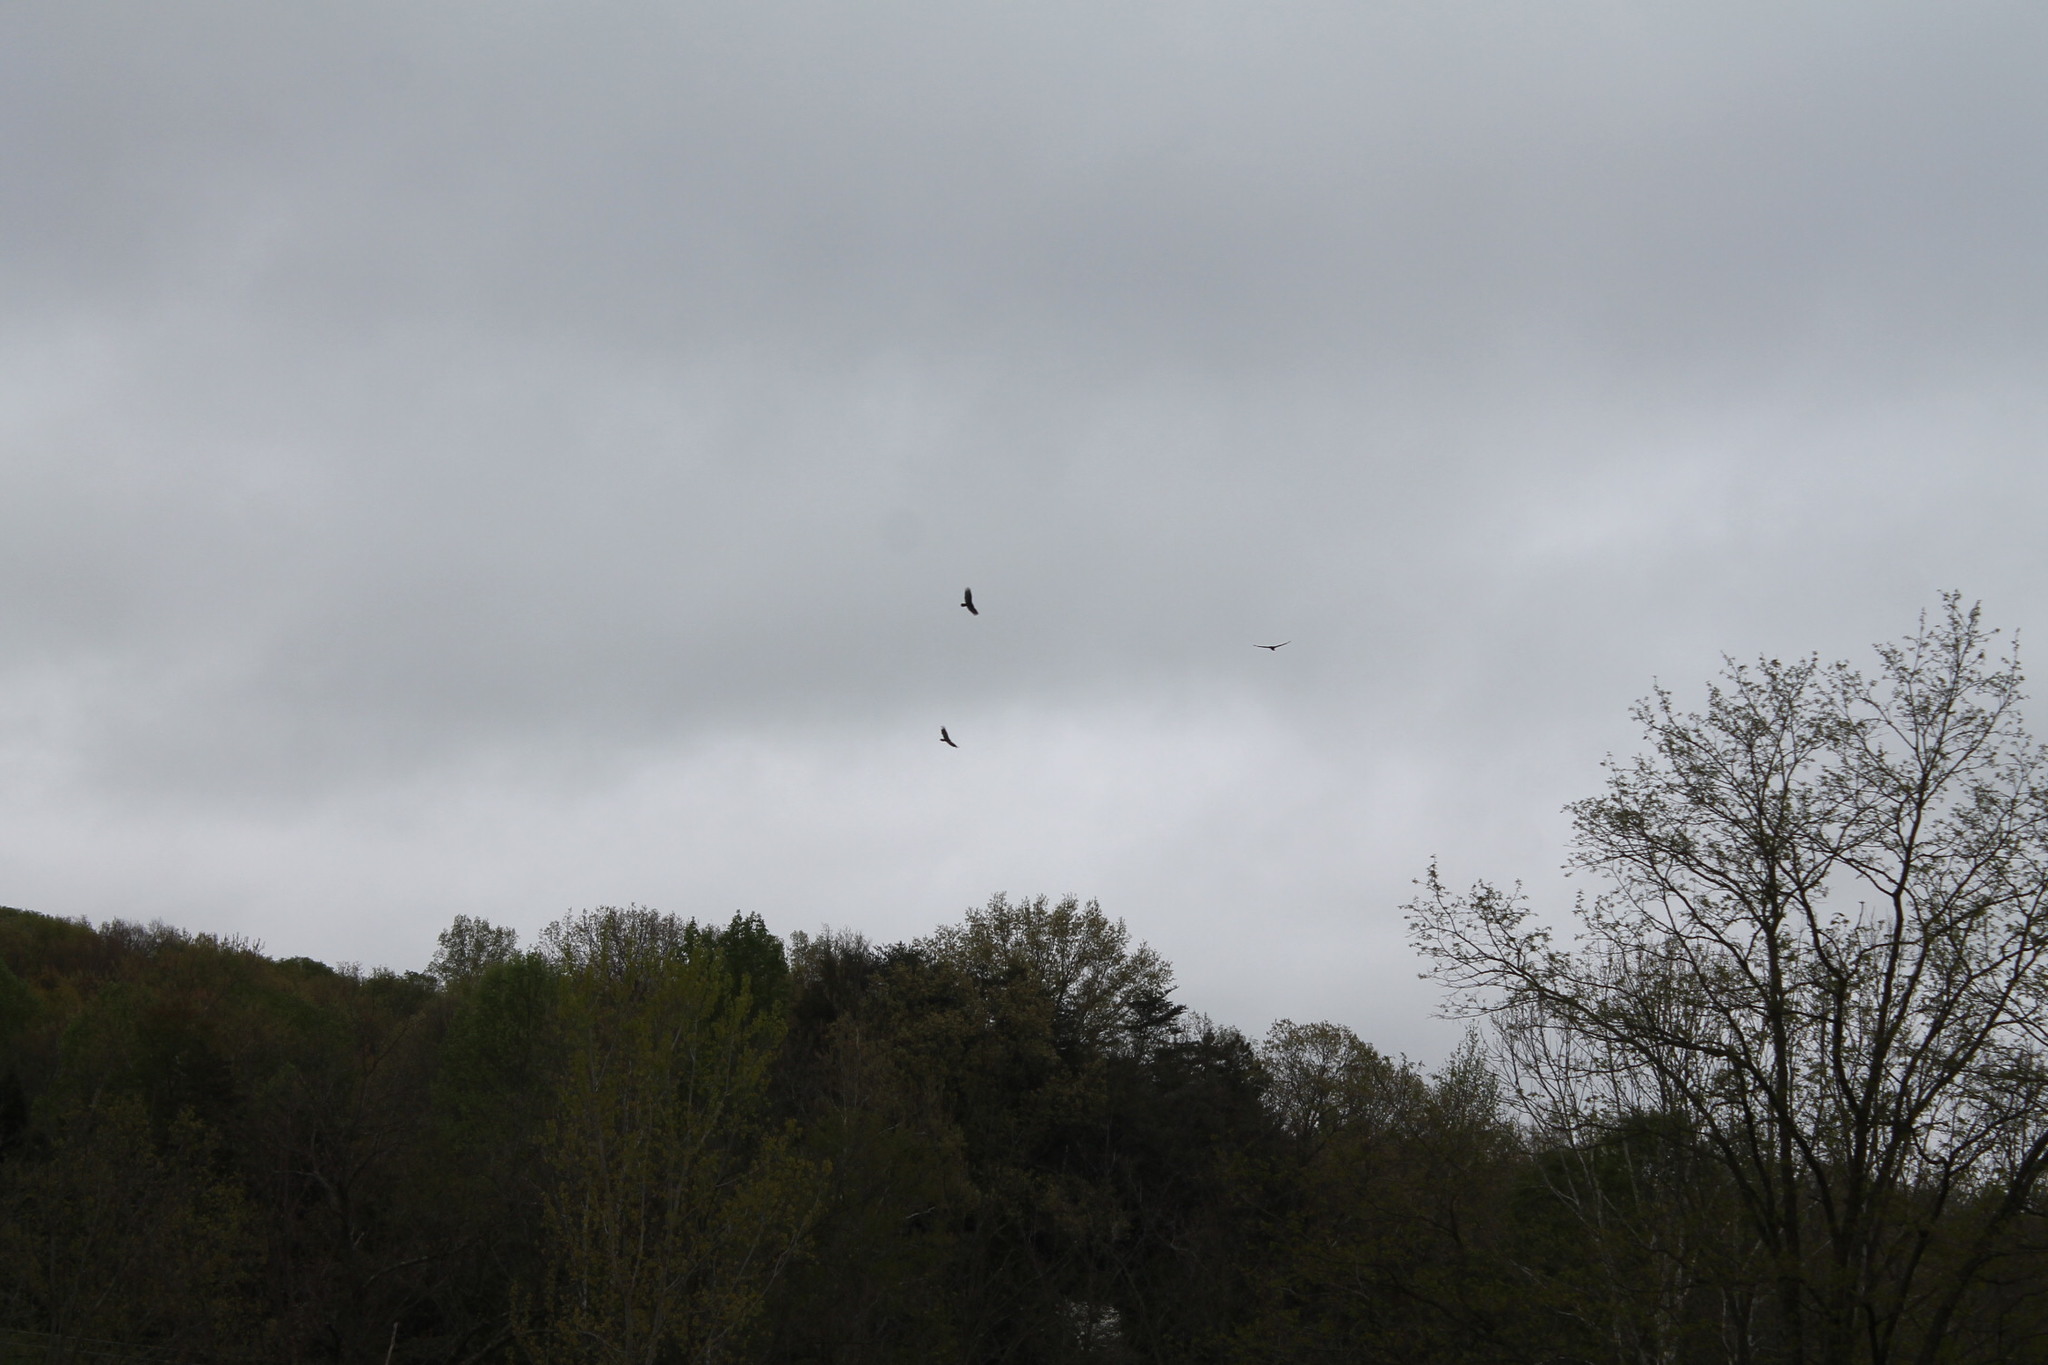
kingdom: Animalia
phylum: Chordata
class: Aves
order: Accipitriformes
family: Cathartidae
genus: Cathartes
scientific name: Cathartes aura
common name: Turkey vulture
